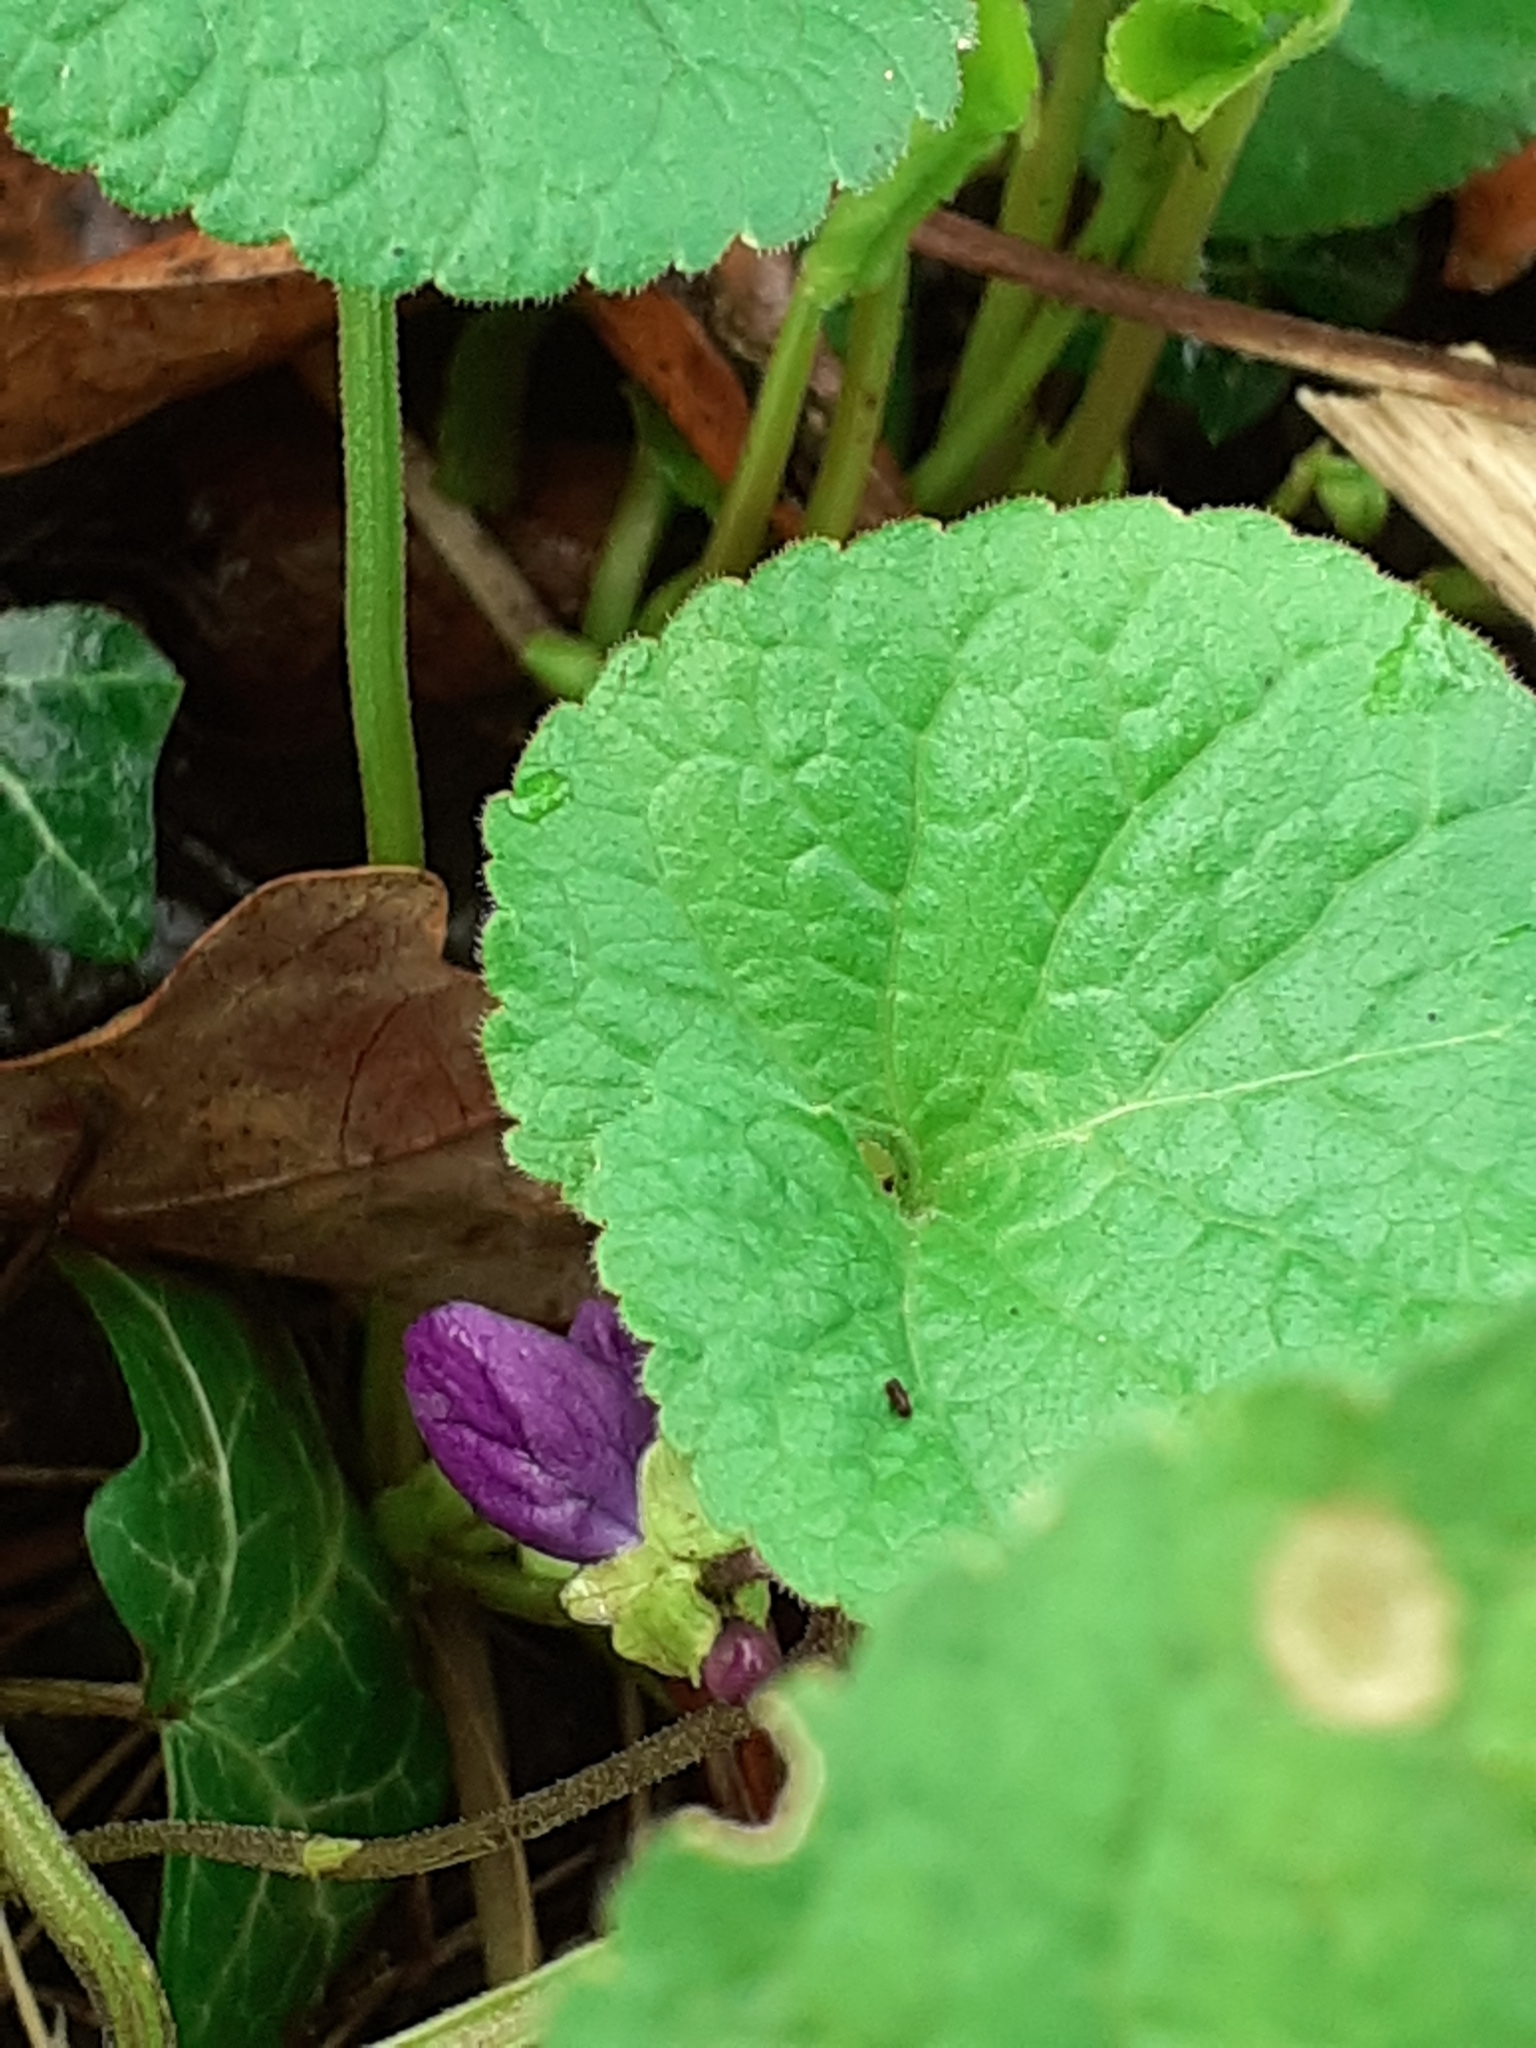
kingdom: Plantae
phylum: Tracheophyta
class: Magnoliopsida
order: Malpighiales
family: Violaceae
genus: Viola
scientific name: Viola odorata
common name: Sweet violet
